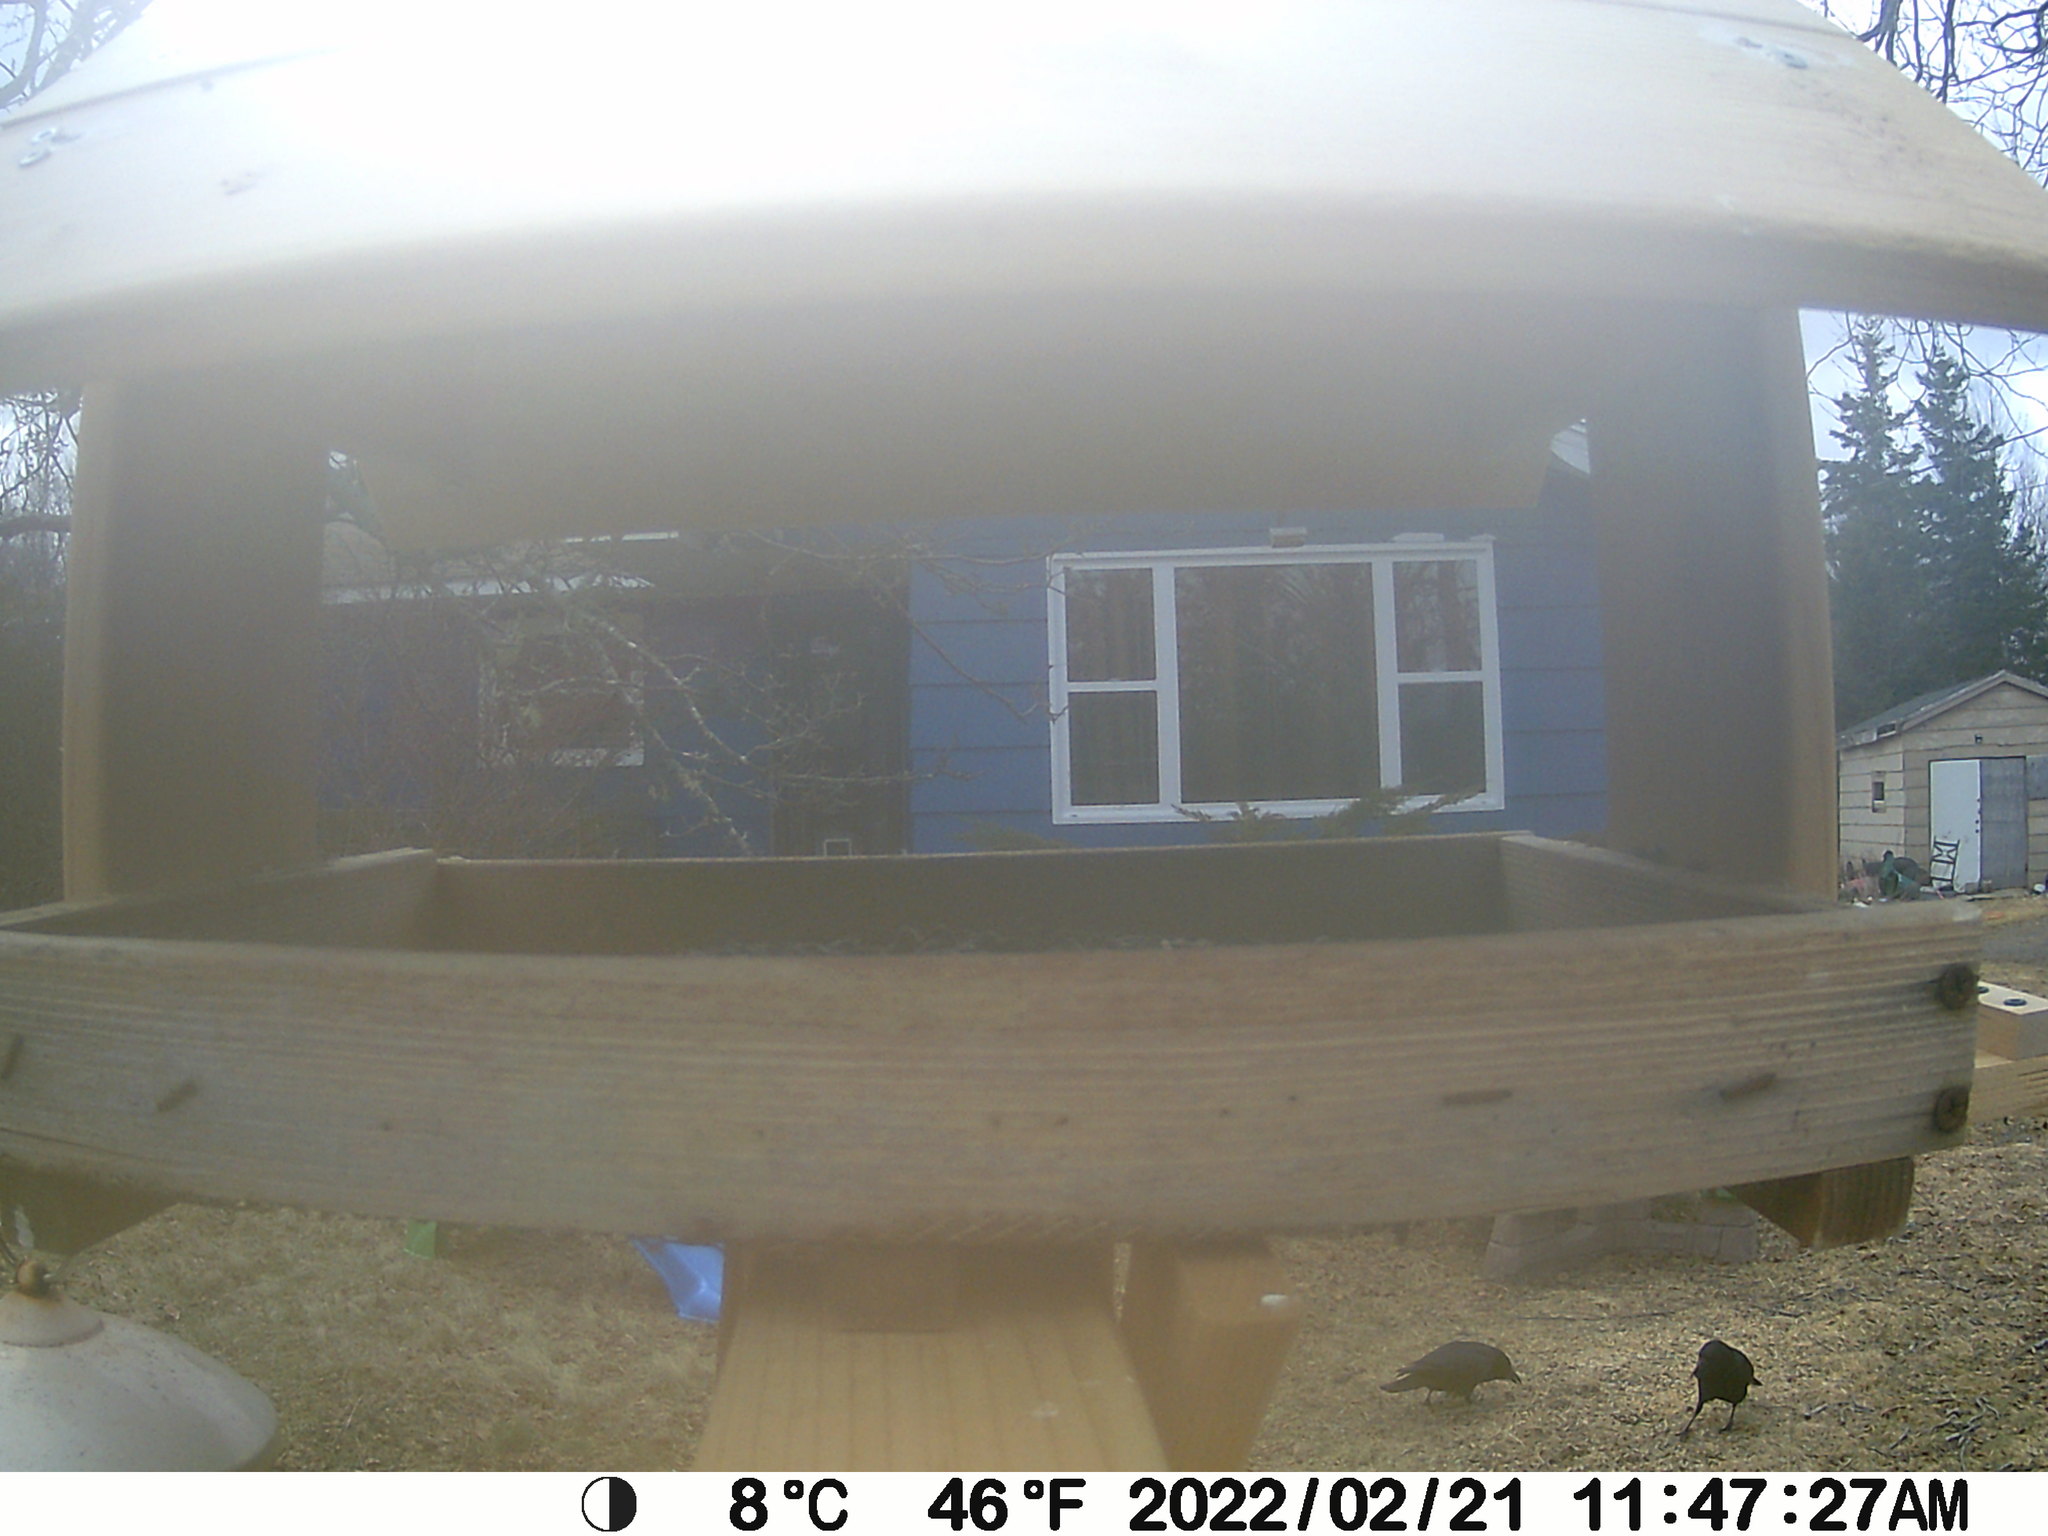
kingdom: Animalia
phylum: Chordata
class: Aves
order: Passeriformes
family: Corvidae
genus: Corvus
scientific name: Corvus brachyrhynchos
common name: American crow
